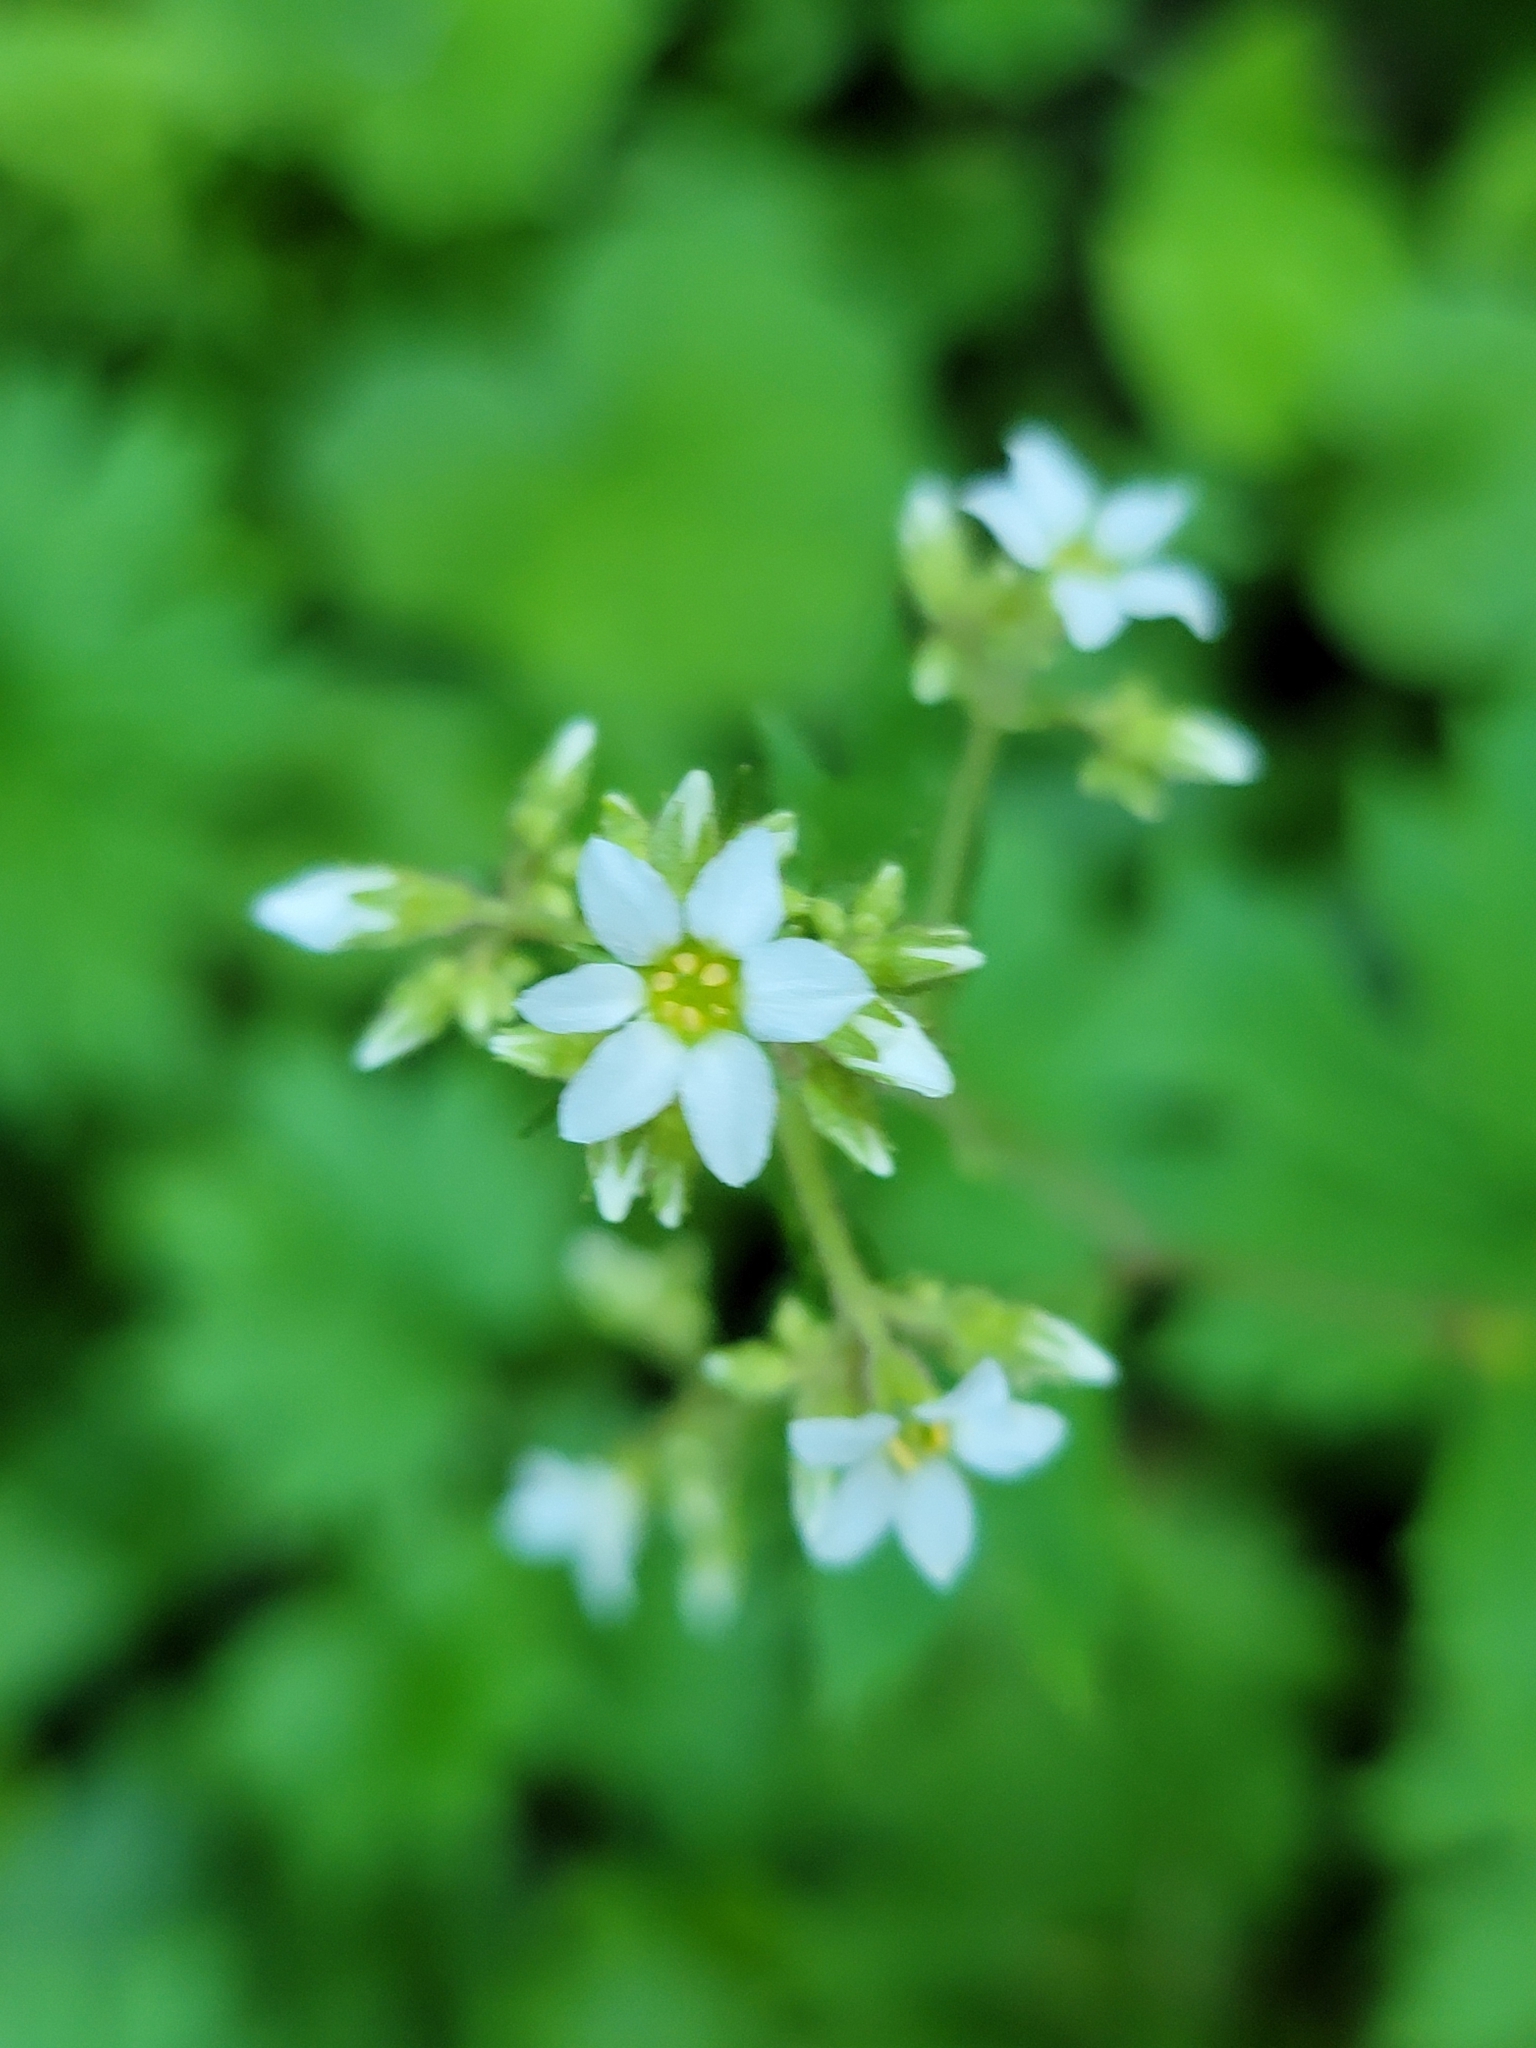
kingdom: Plantae
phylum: Tracheophyta
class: Magnoliopsida
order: Saxifragales
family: Saxifragaceae
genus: Boykinia
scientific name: Boykinia aconitifolia
